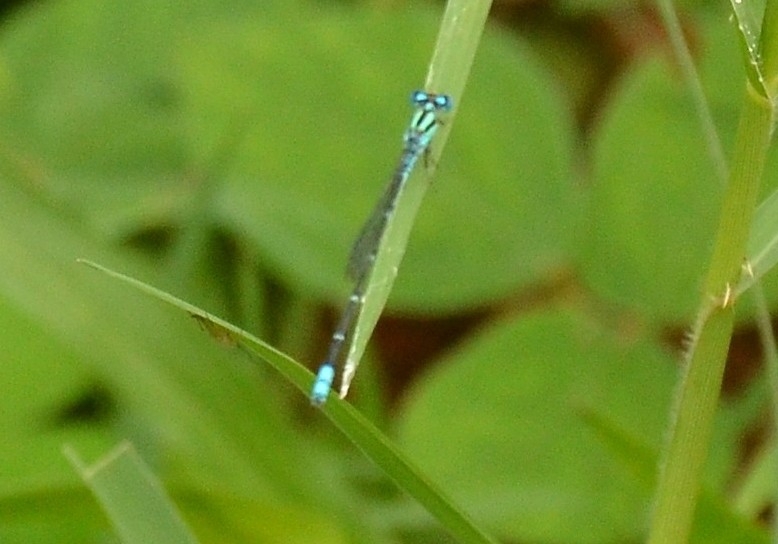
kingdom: Animalia
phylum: Arthropoda
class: Insecta
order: Odonata
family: Coenagrionidae
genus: Pseudagrion
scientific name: Pseudagrion microcephalum
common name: Blue riverdamsel
